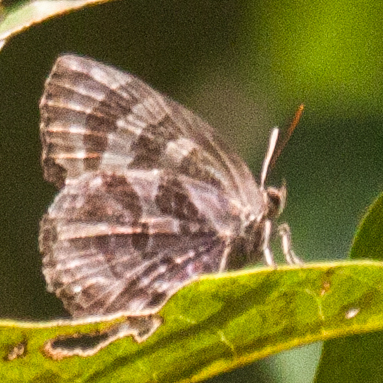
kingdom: Animalia
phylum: Arthropoda
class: Insecta
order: Lepidoptera
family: Lycaenidae
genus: Flos
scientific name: Flos
